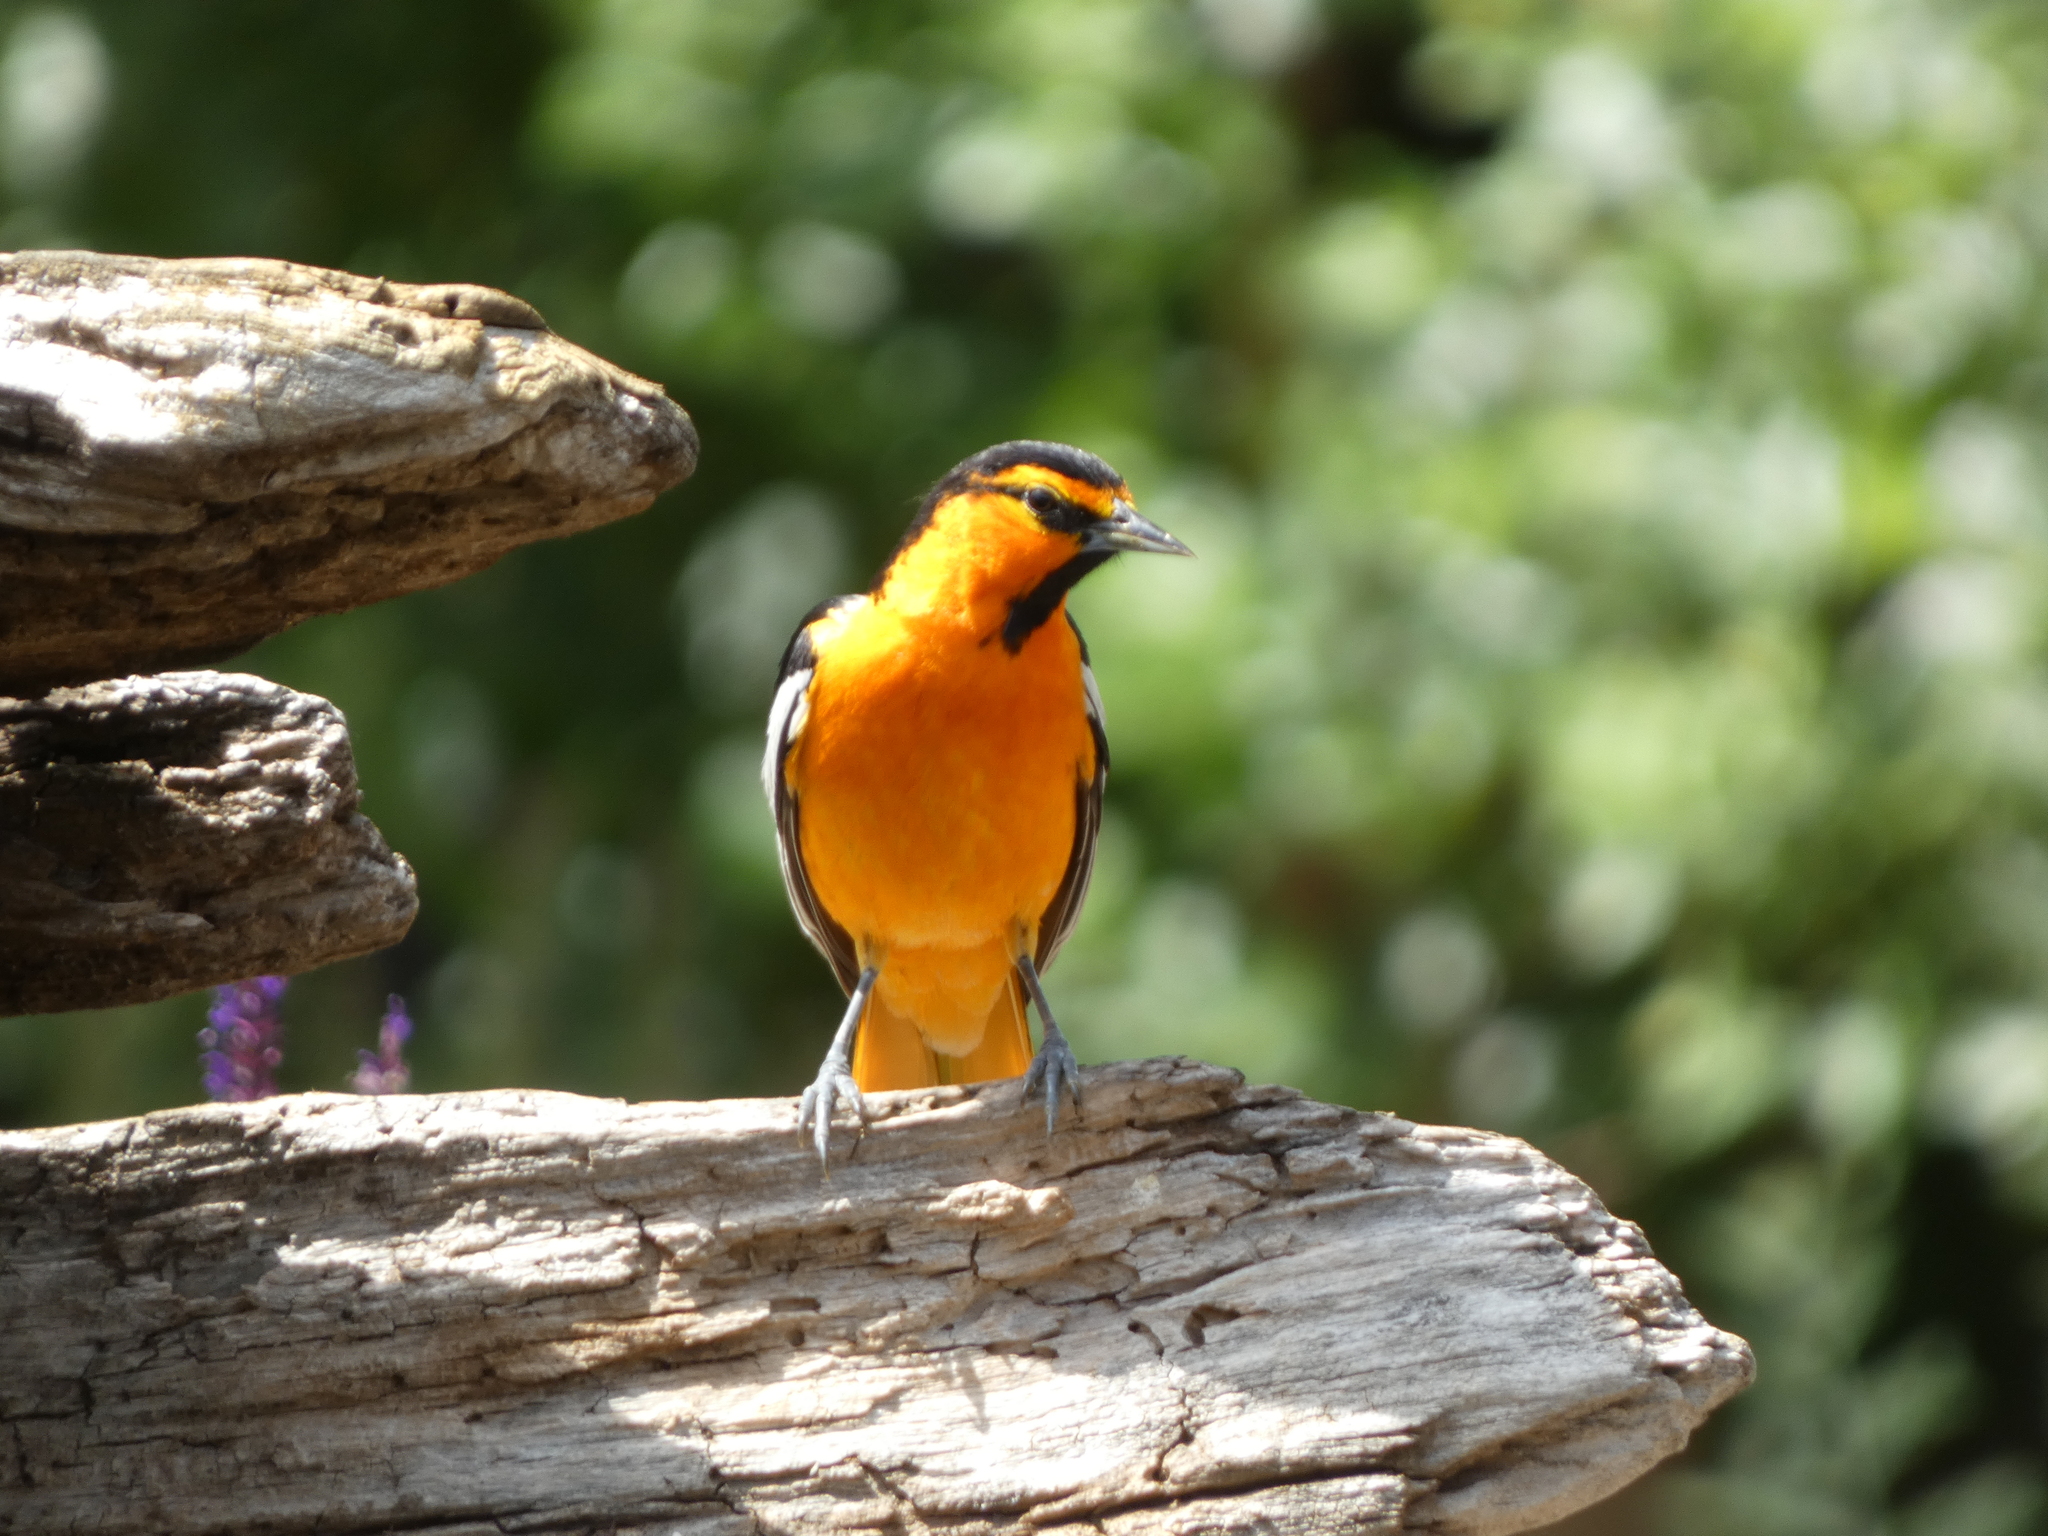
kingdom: Animalia
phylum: Chordata
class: Aves
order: Passeriformes
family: Icteridae
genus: Icterus
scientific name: Icterus bullockii
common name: Bullock's oriole
